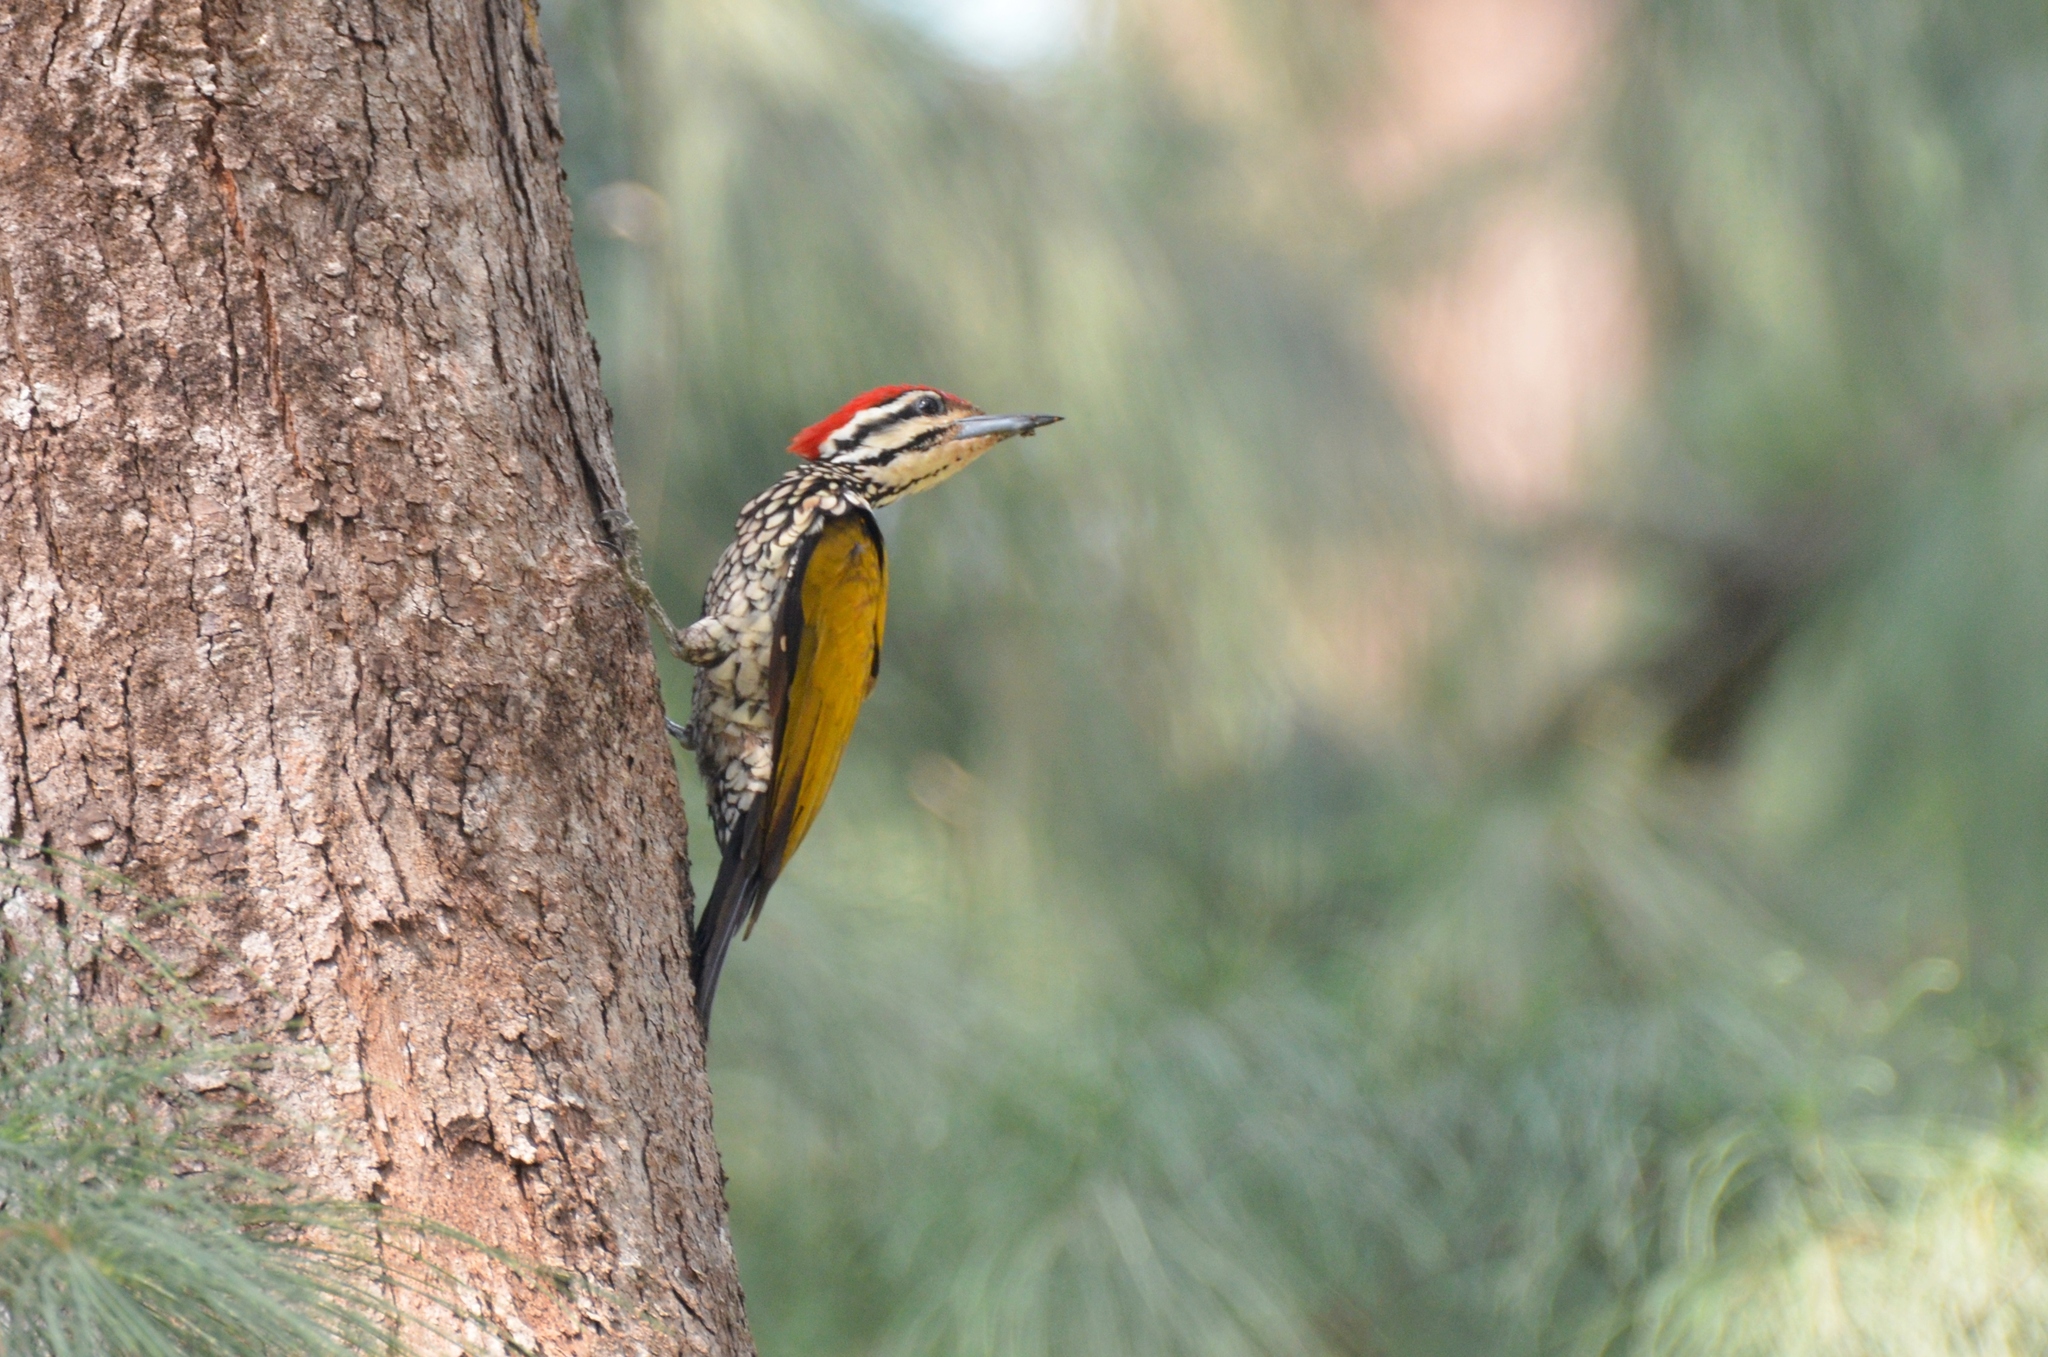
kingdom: Animalia
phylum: Chordata
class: Aves
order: Piciformes
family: Picidae
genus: Dinopium
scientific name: Dinopium javanense
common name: Common flameback
